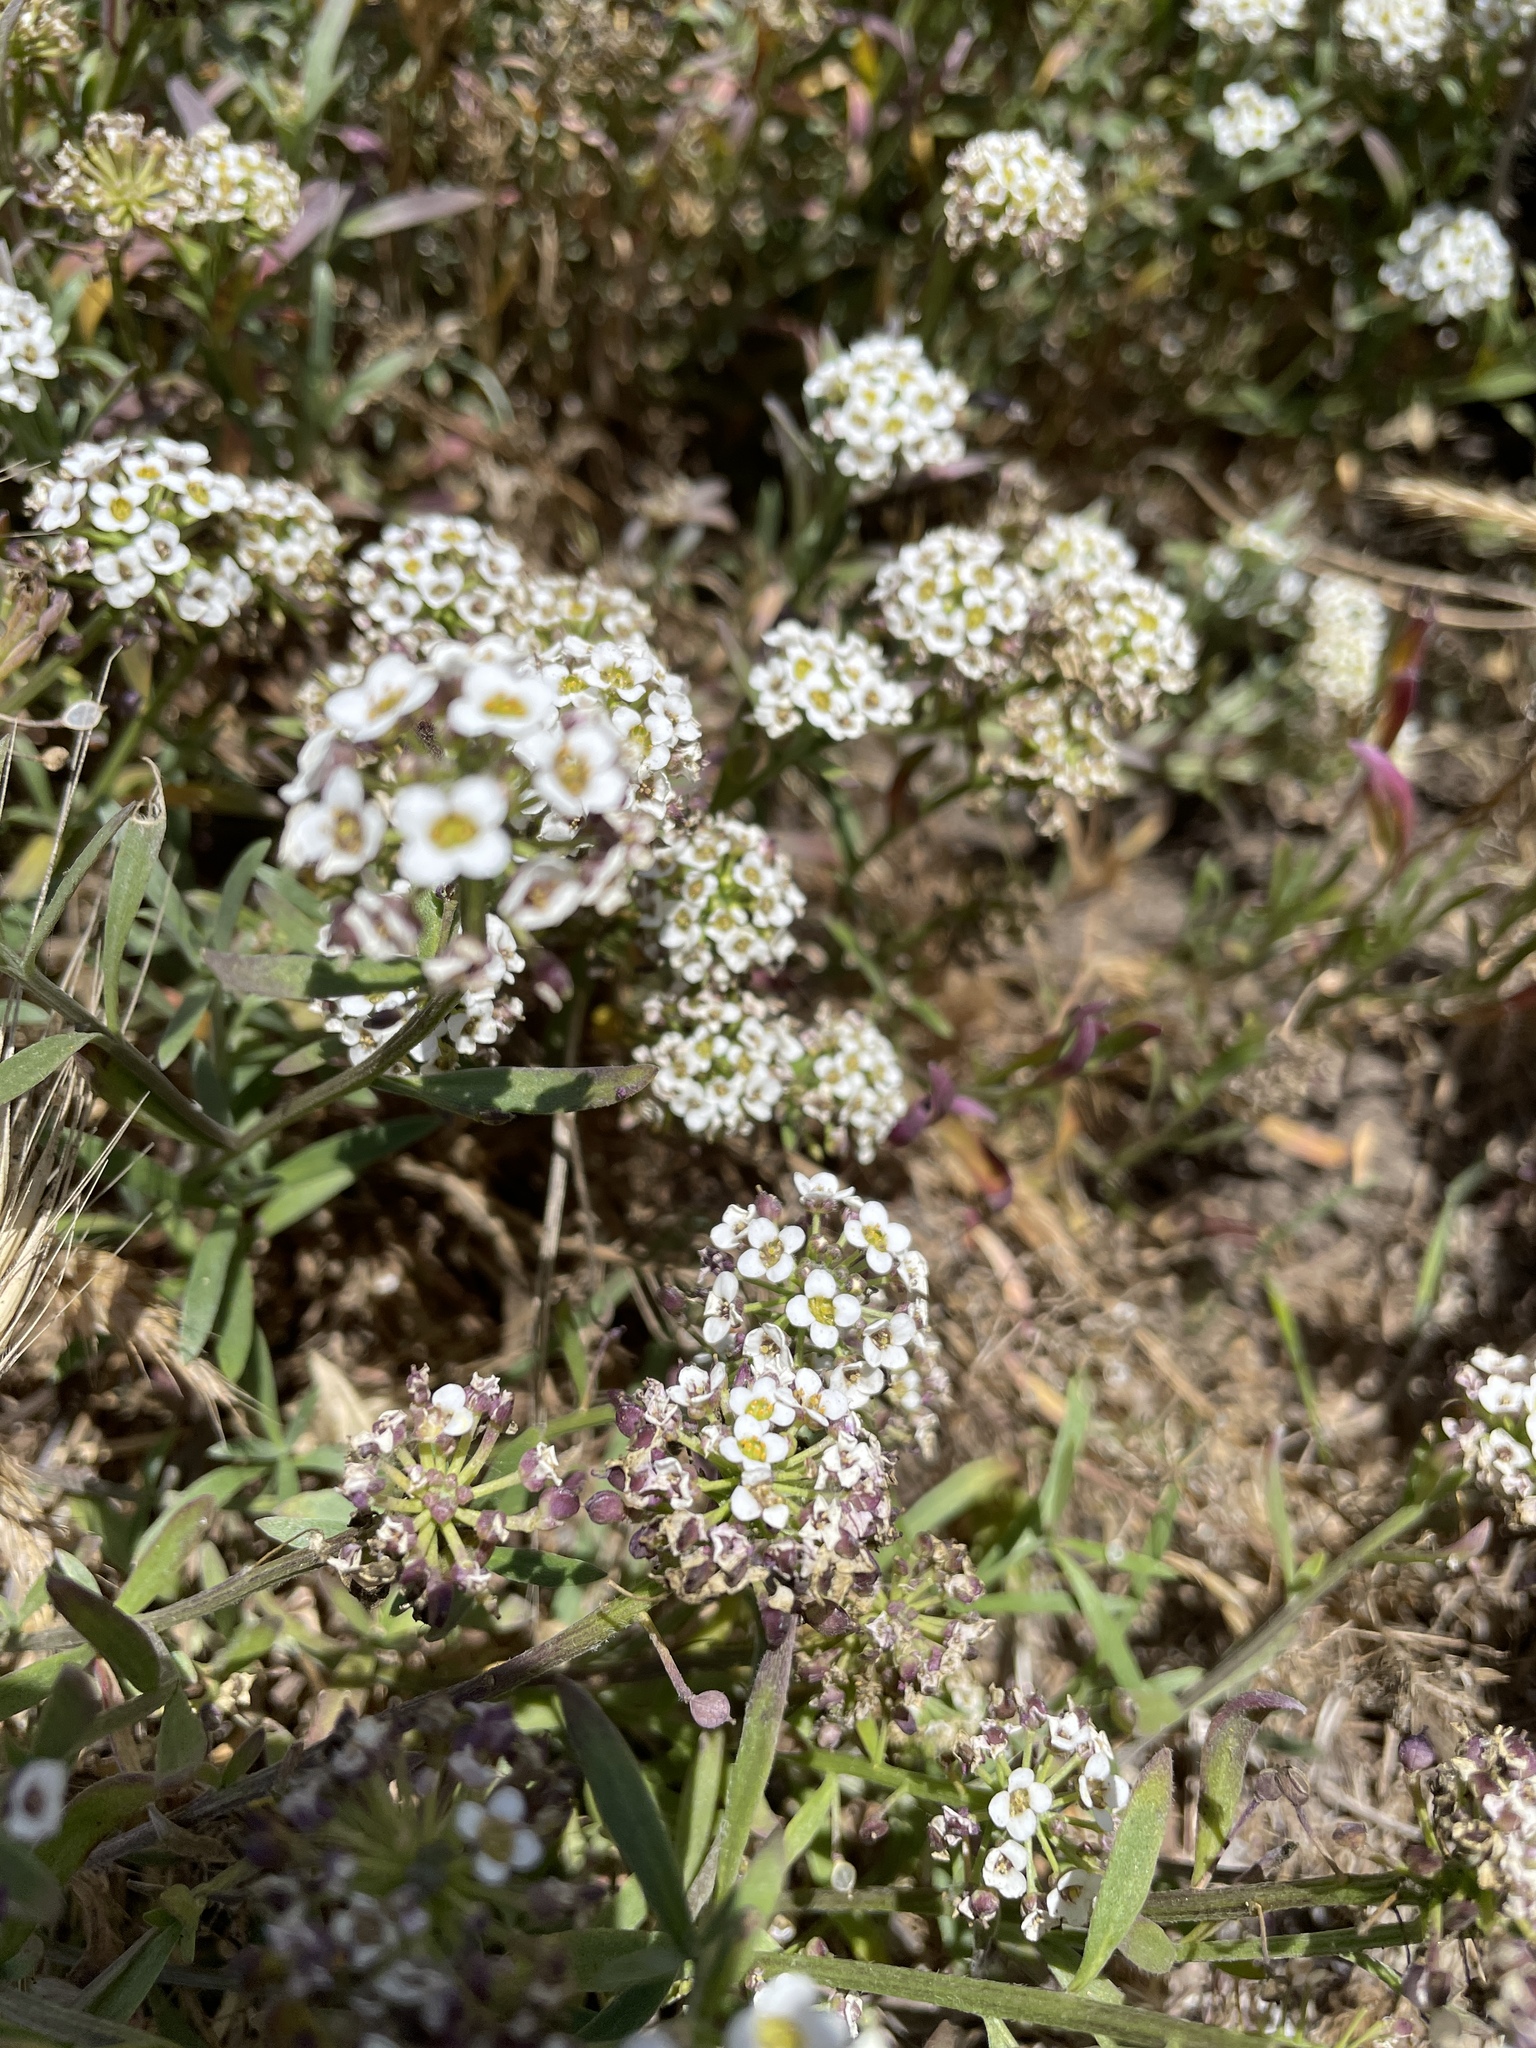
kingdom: Plantae
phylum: Tracheophyta
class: Magnoliopsida
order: Brassicales
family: Brassicaceae
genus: Lobularia
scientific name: Lobularia maritima
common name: Sweet alison
